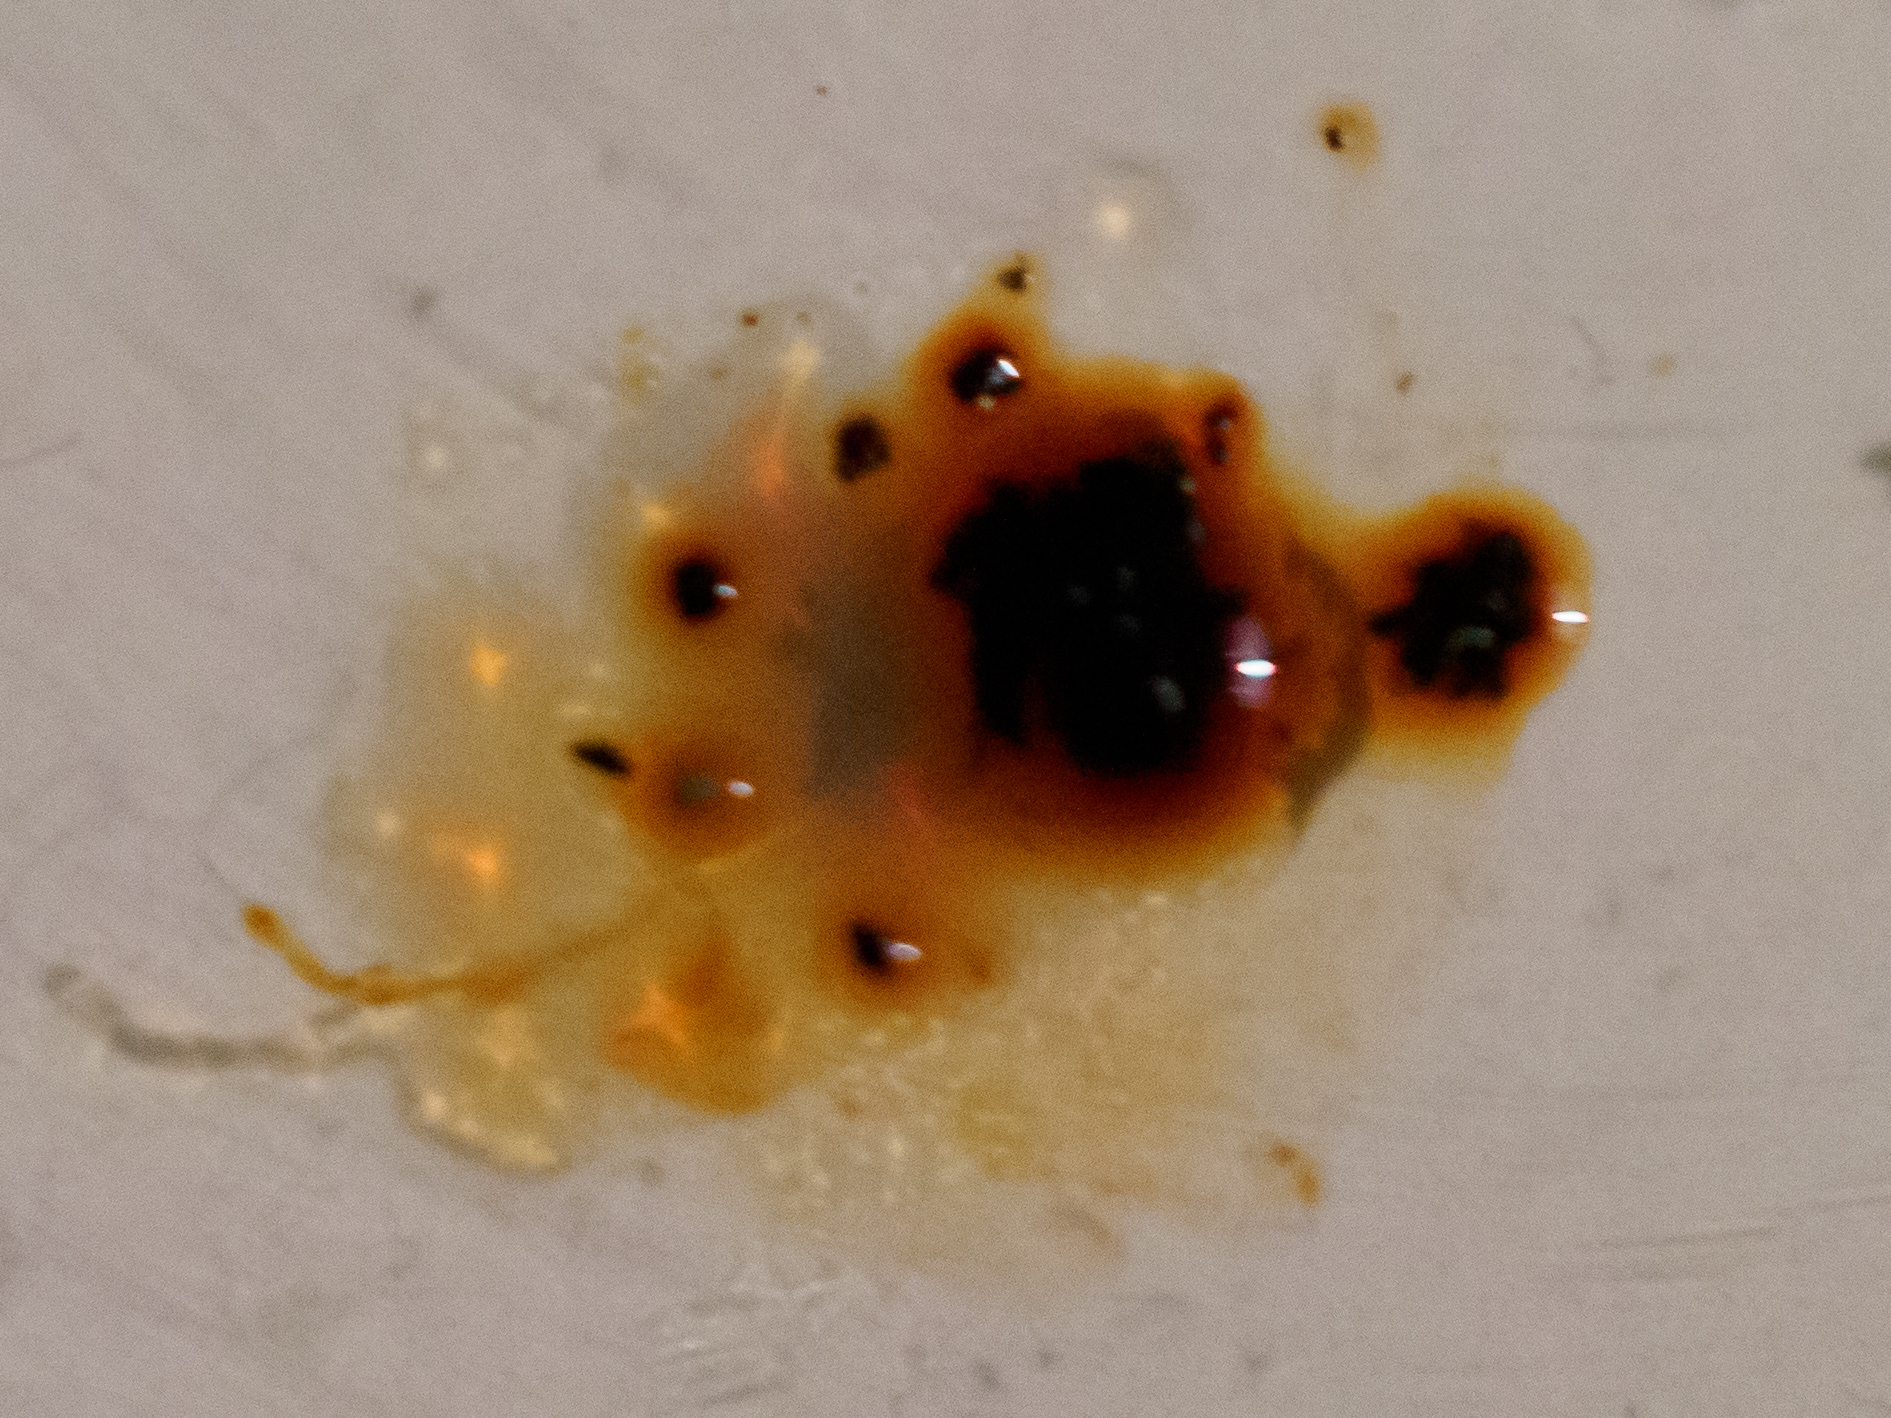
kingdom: Fungi
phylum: Ascomycota
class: Sordariomycetes
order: Xylariales
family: Hypoxylaceae
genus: Hypoxylon
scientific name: Hypoxylon fragiforme
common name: Beech woodwart
